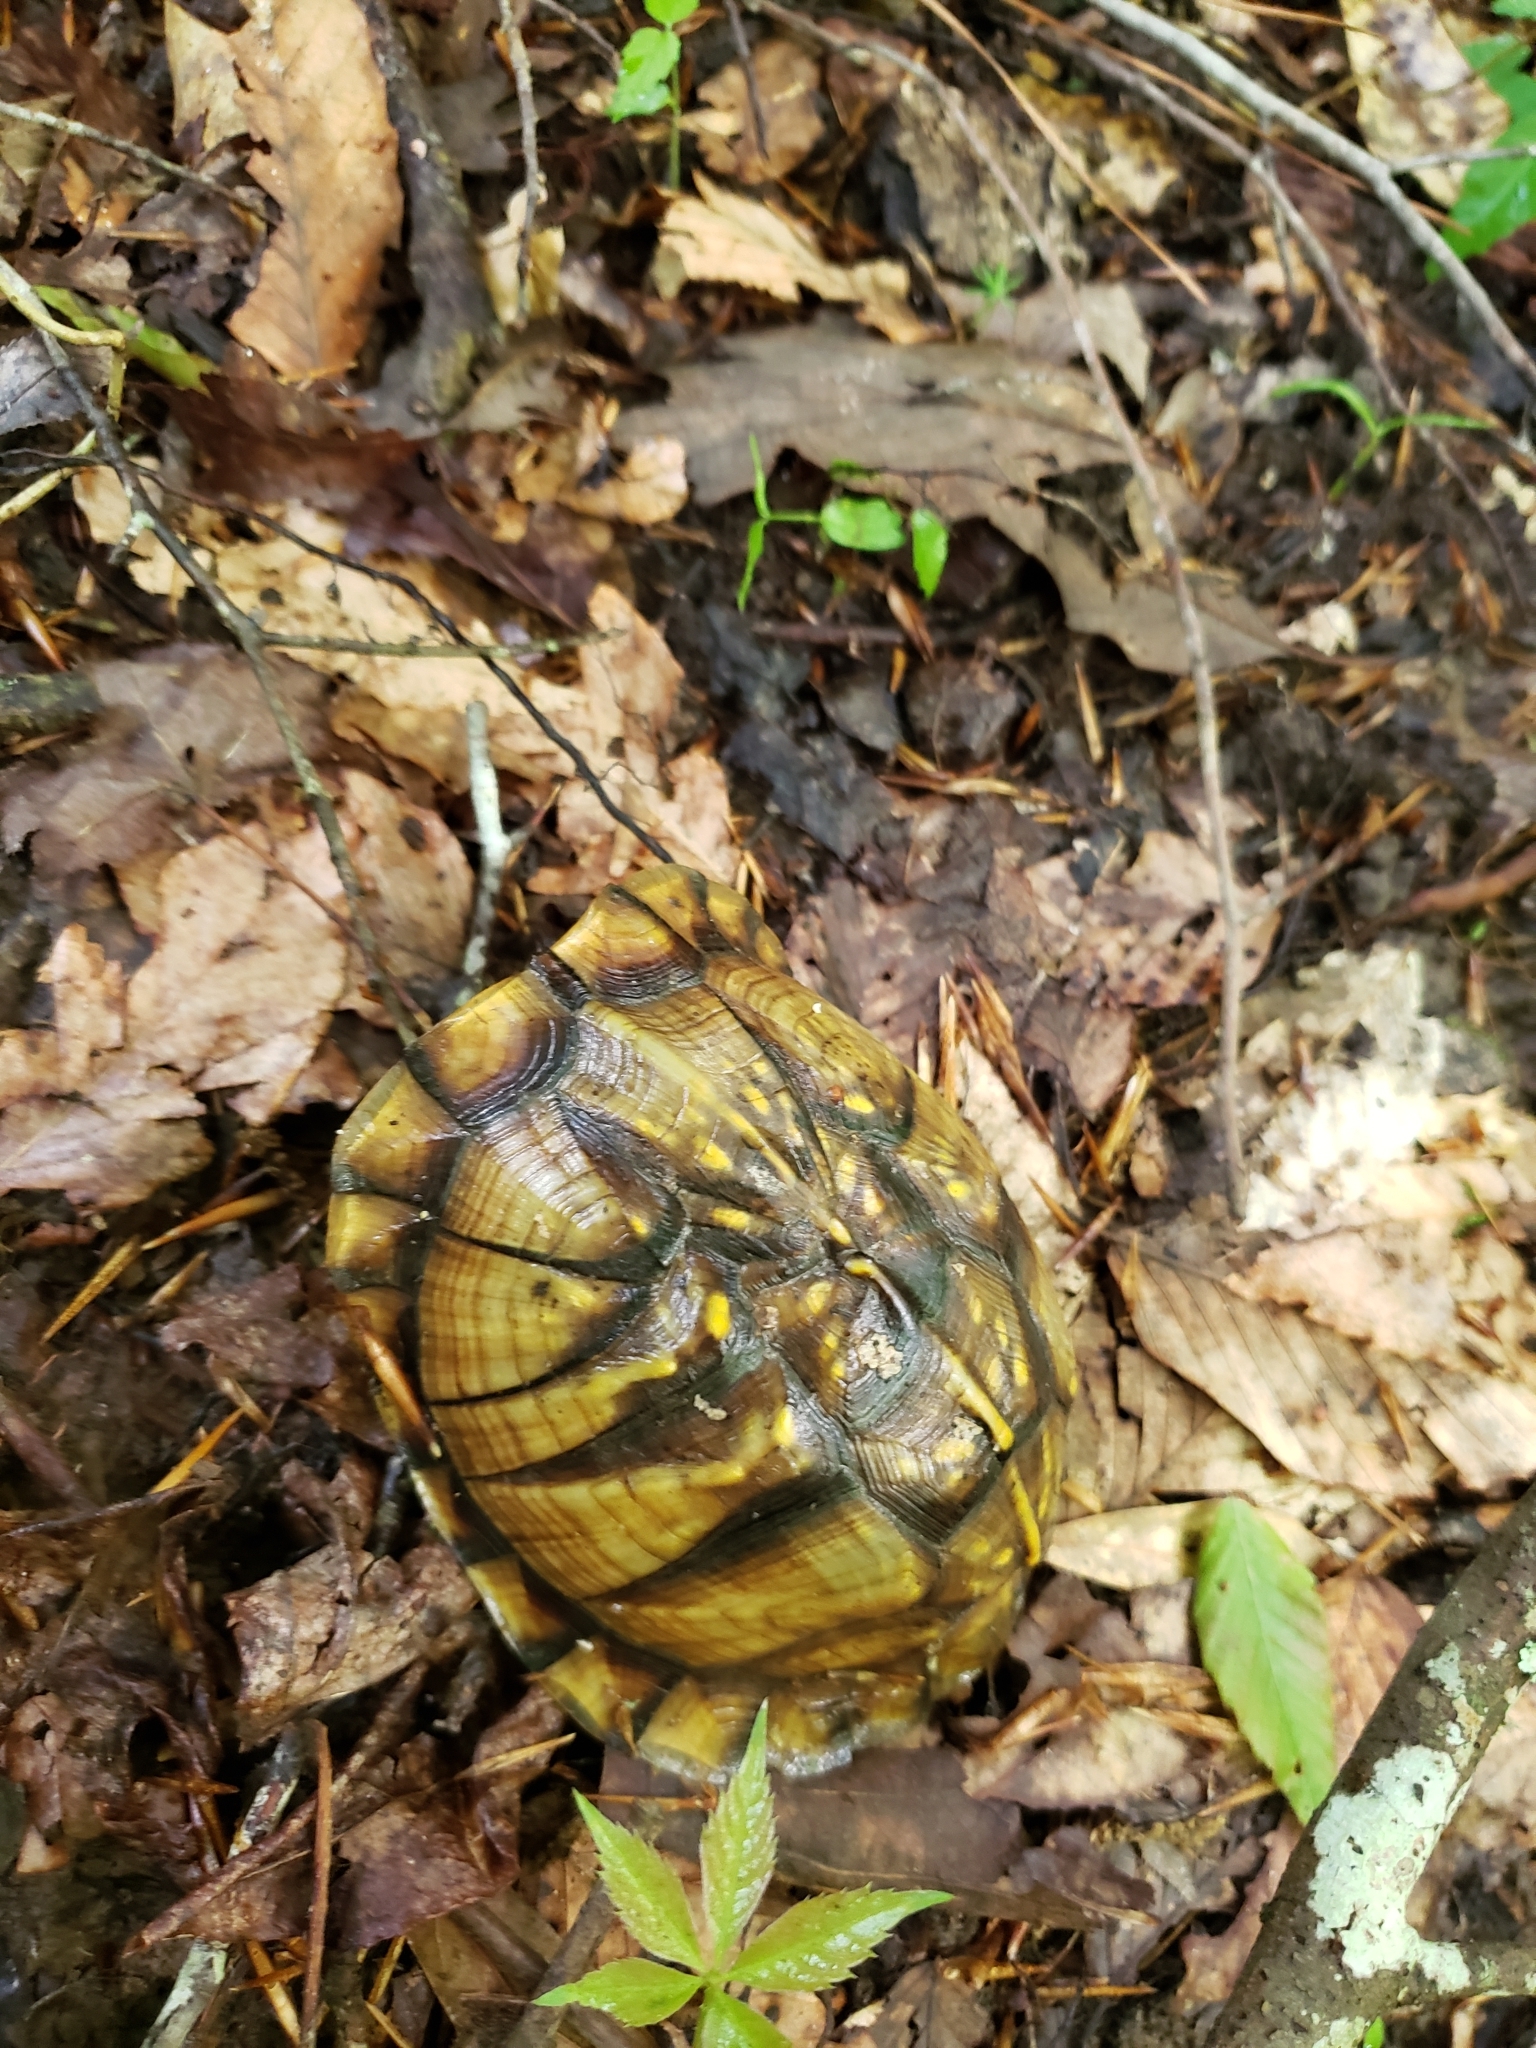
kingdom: Animalia
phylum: Chordata
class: Testudines
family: Emydidae
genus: Terrapene
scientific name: Terrapene carolina
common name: Common box turtle
